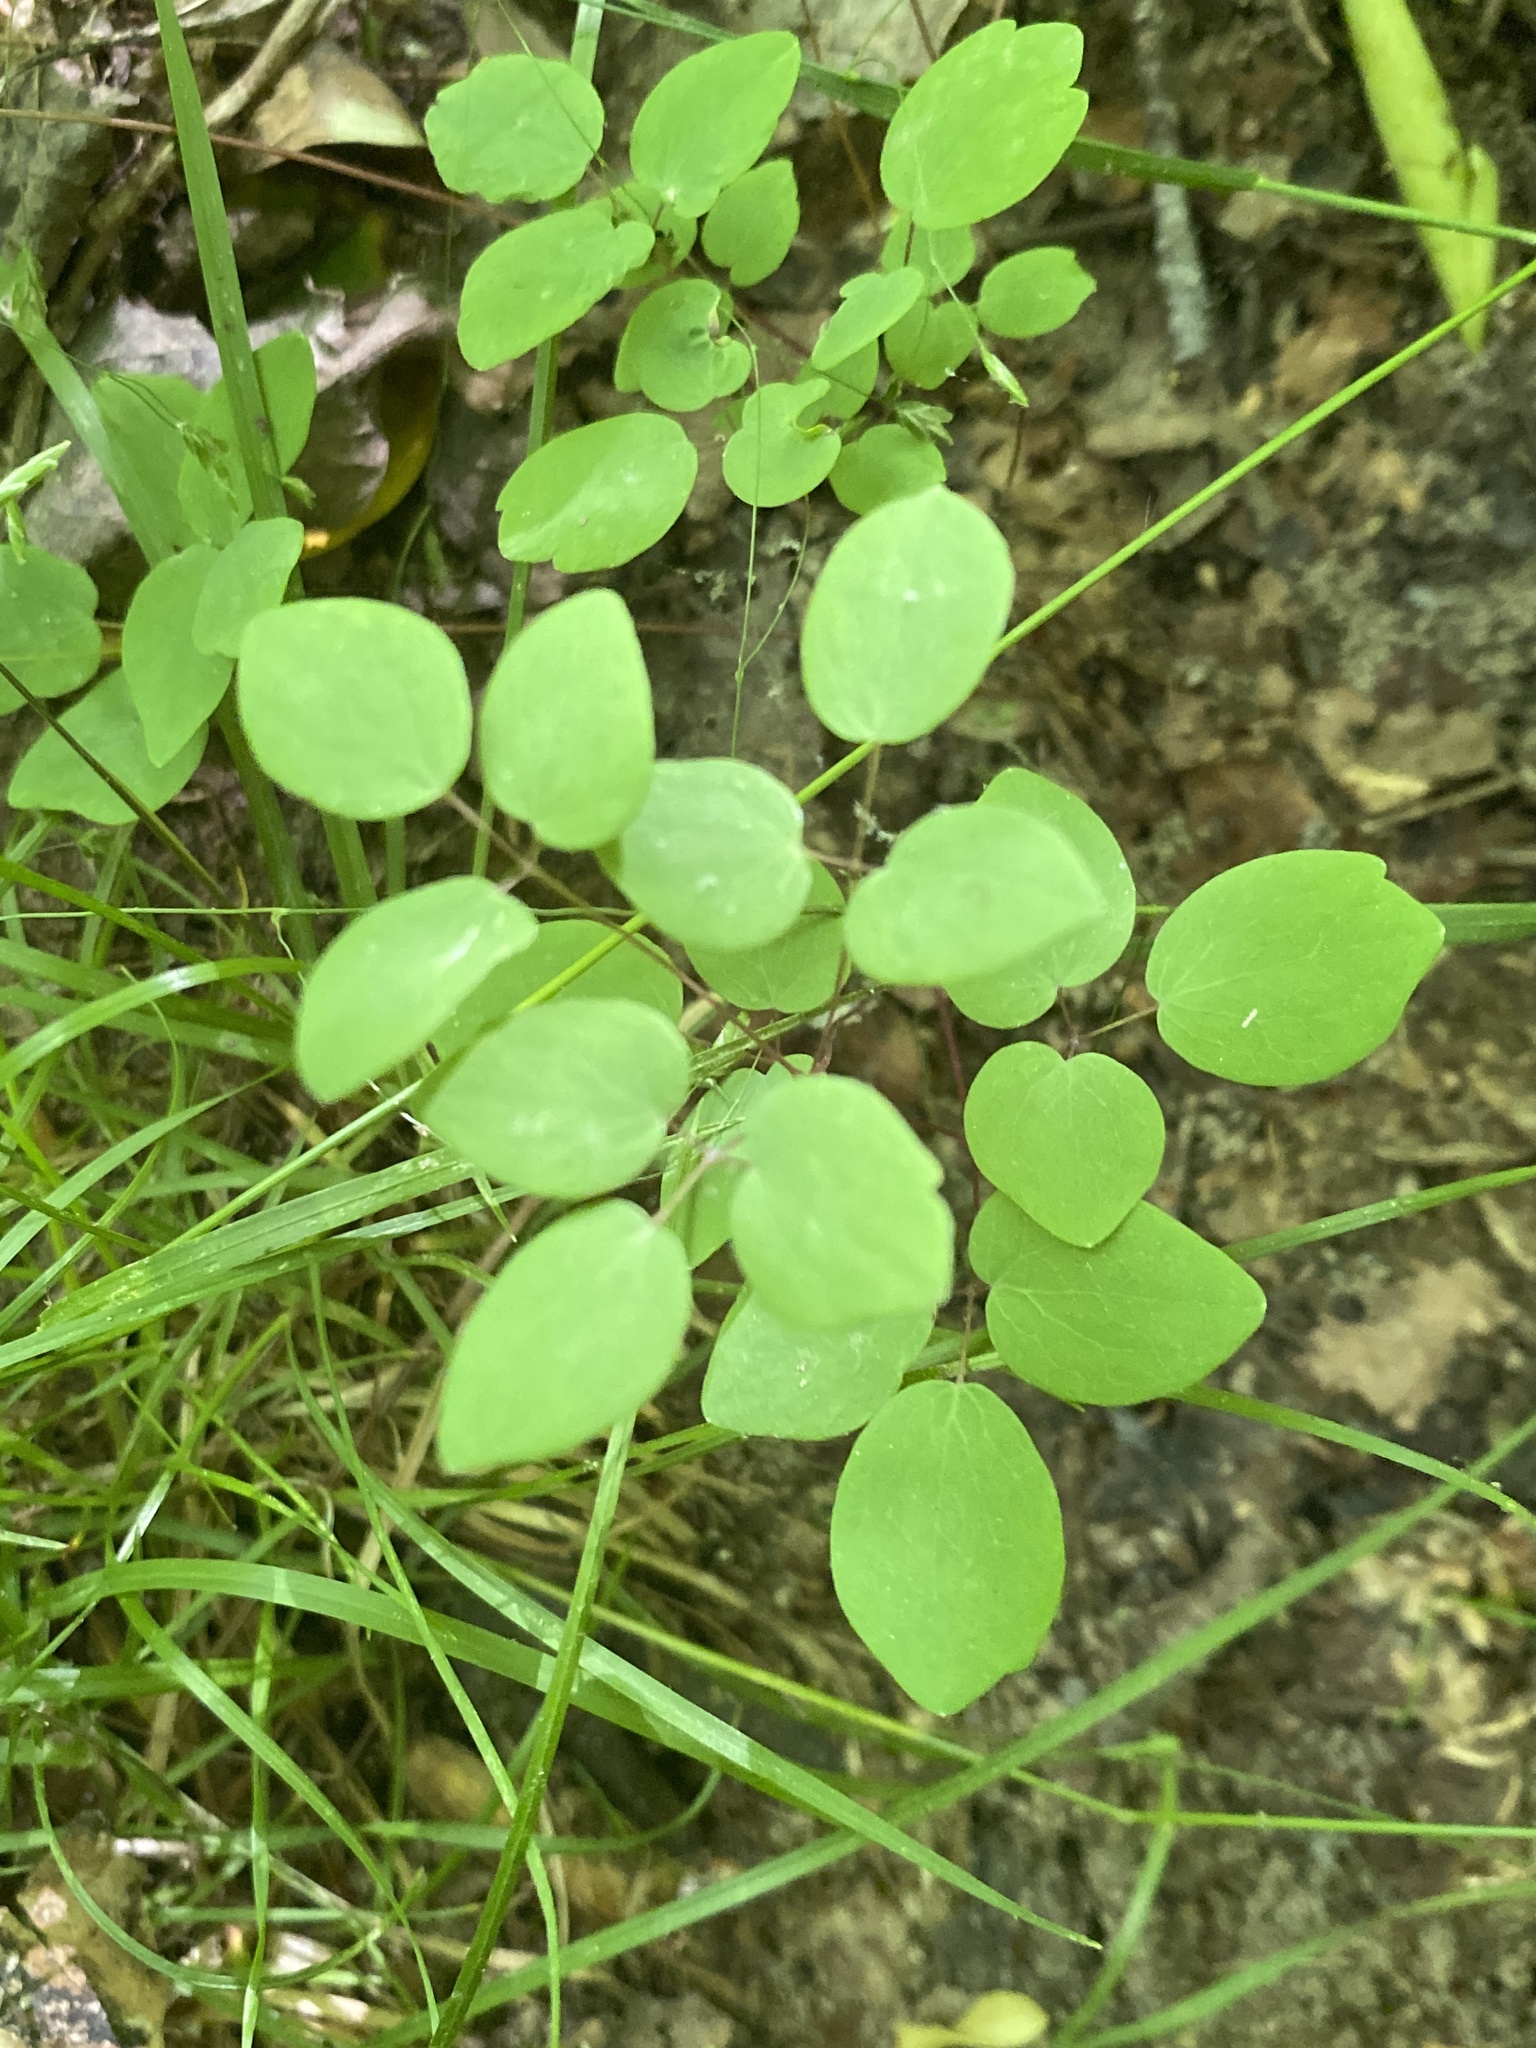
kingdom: Plantae
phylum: Tracheophyta
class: Magnoliopsida
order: Ranunculales
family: Ranunculaceae
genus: Thalictrum
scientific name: Thalictrum thalictroides
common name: Rue-anemone
